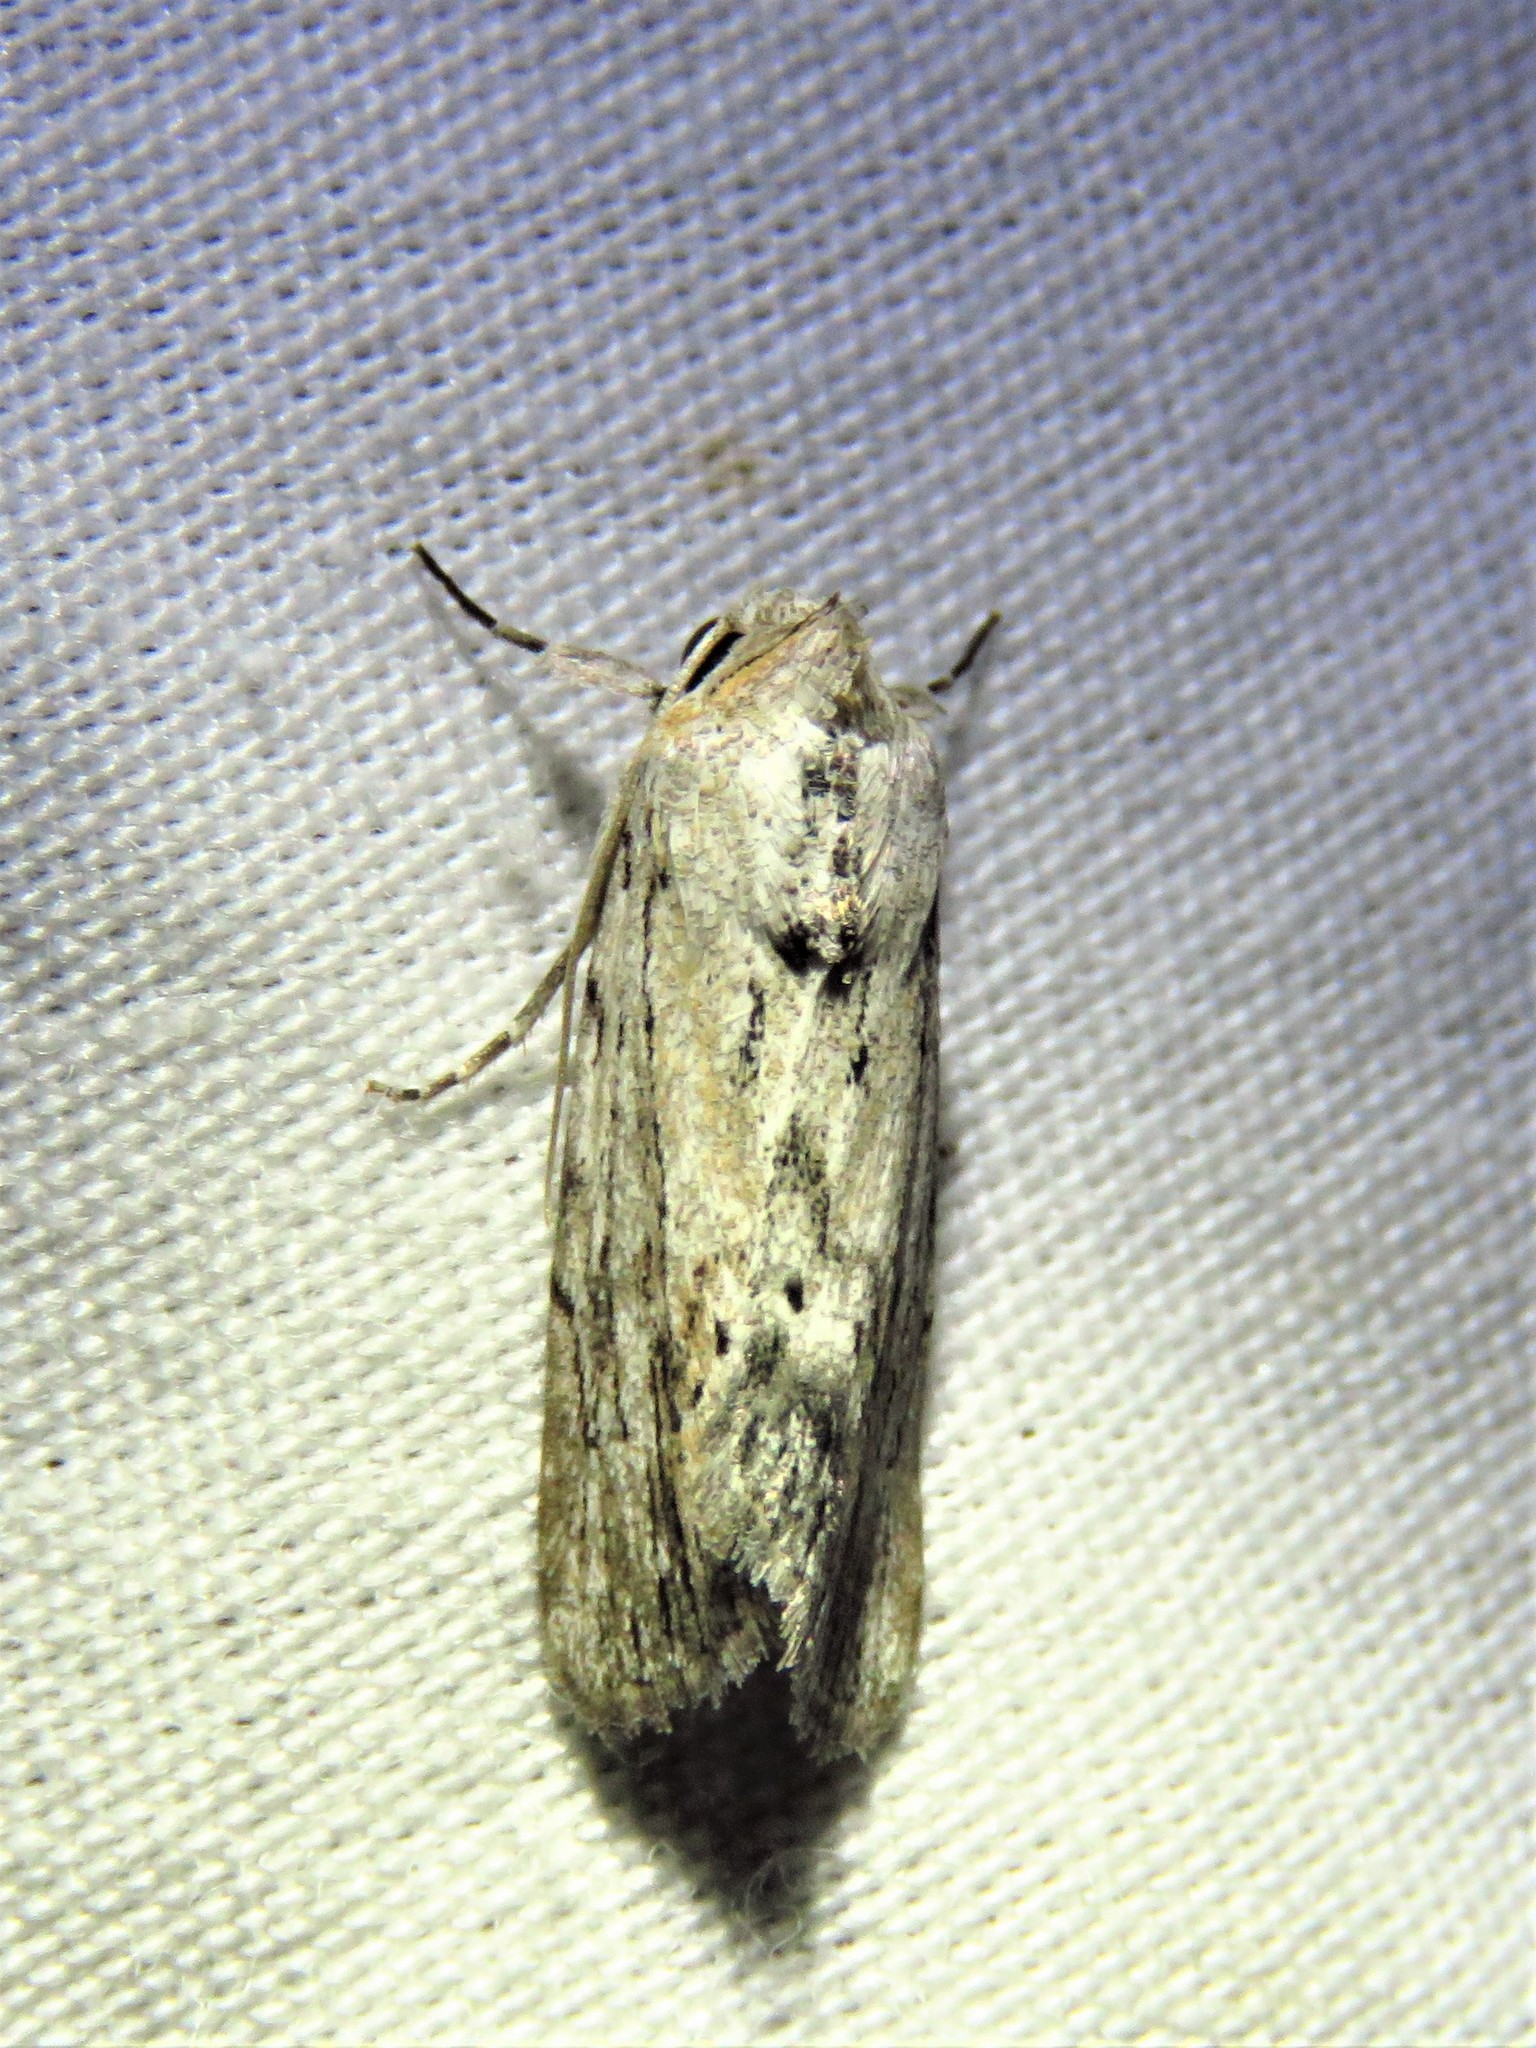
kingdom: Animalia
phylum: Arthropoda
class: Insecta
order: Lepidoptera
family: Noctuidae
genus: Catabenoides
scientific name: Catabenoides terminellus
